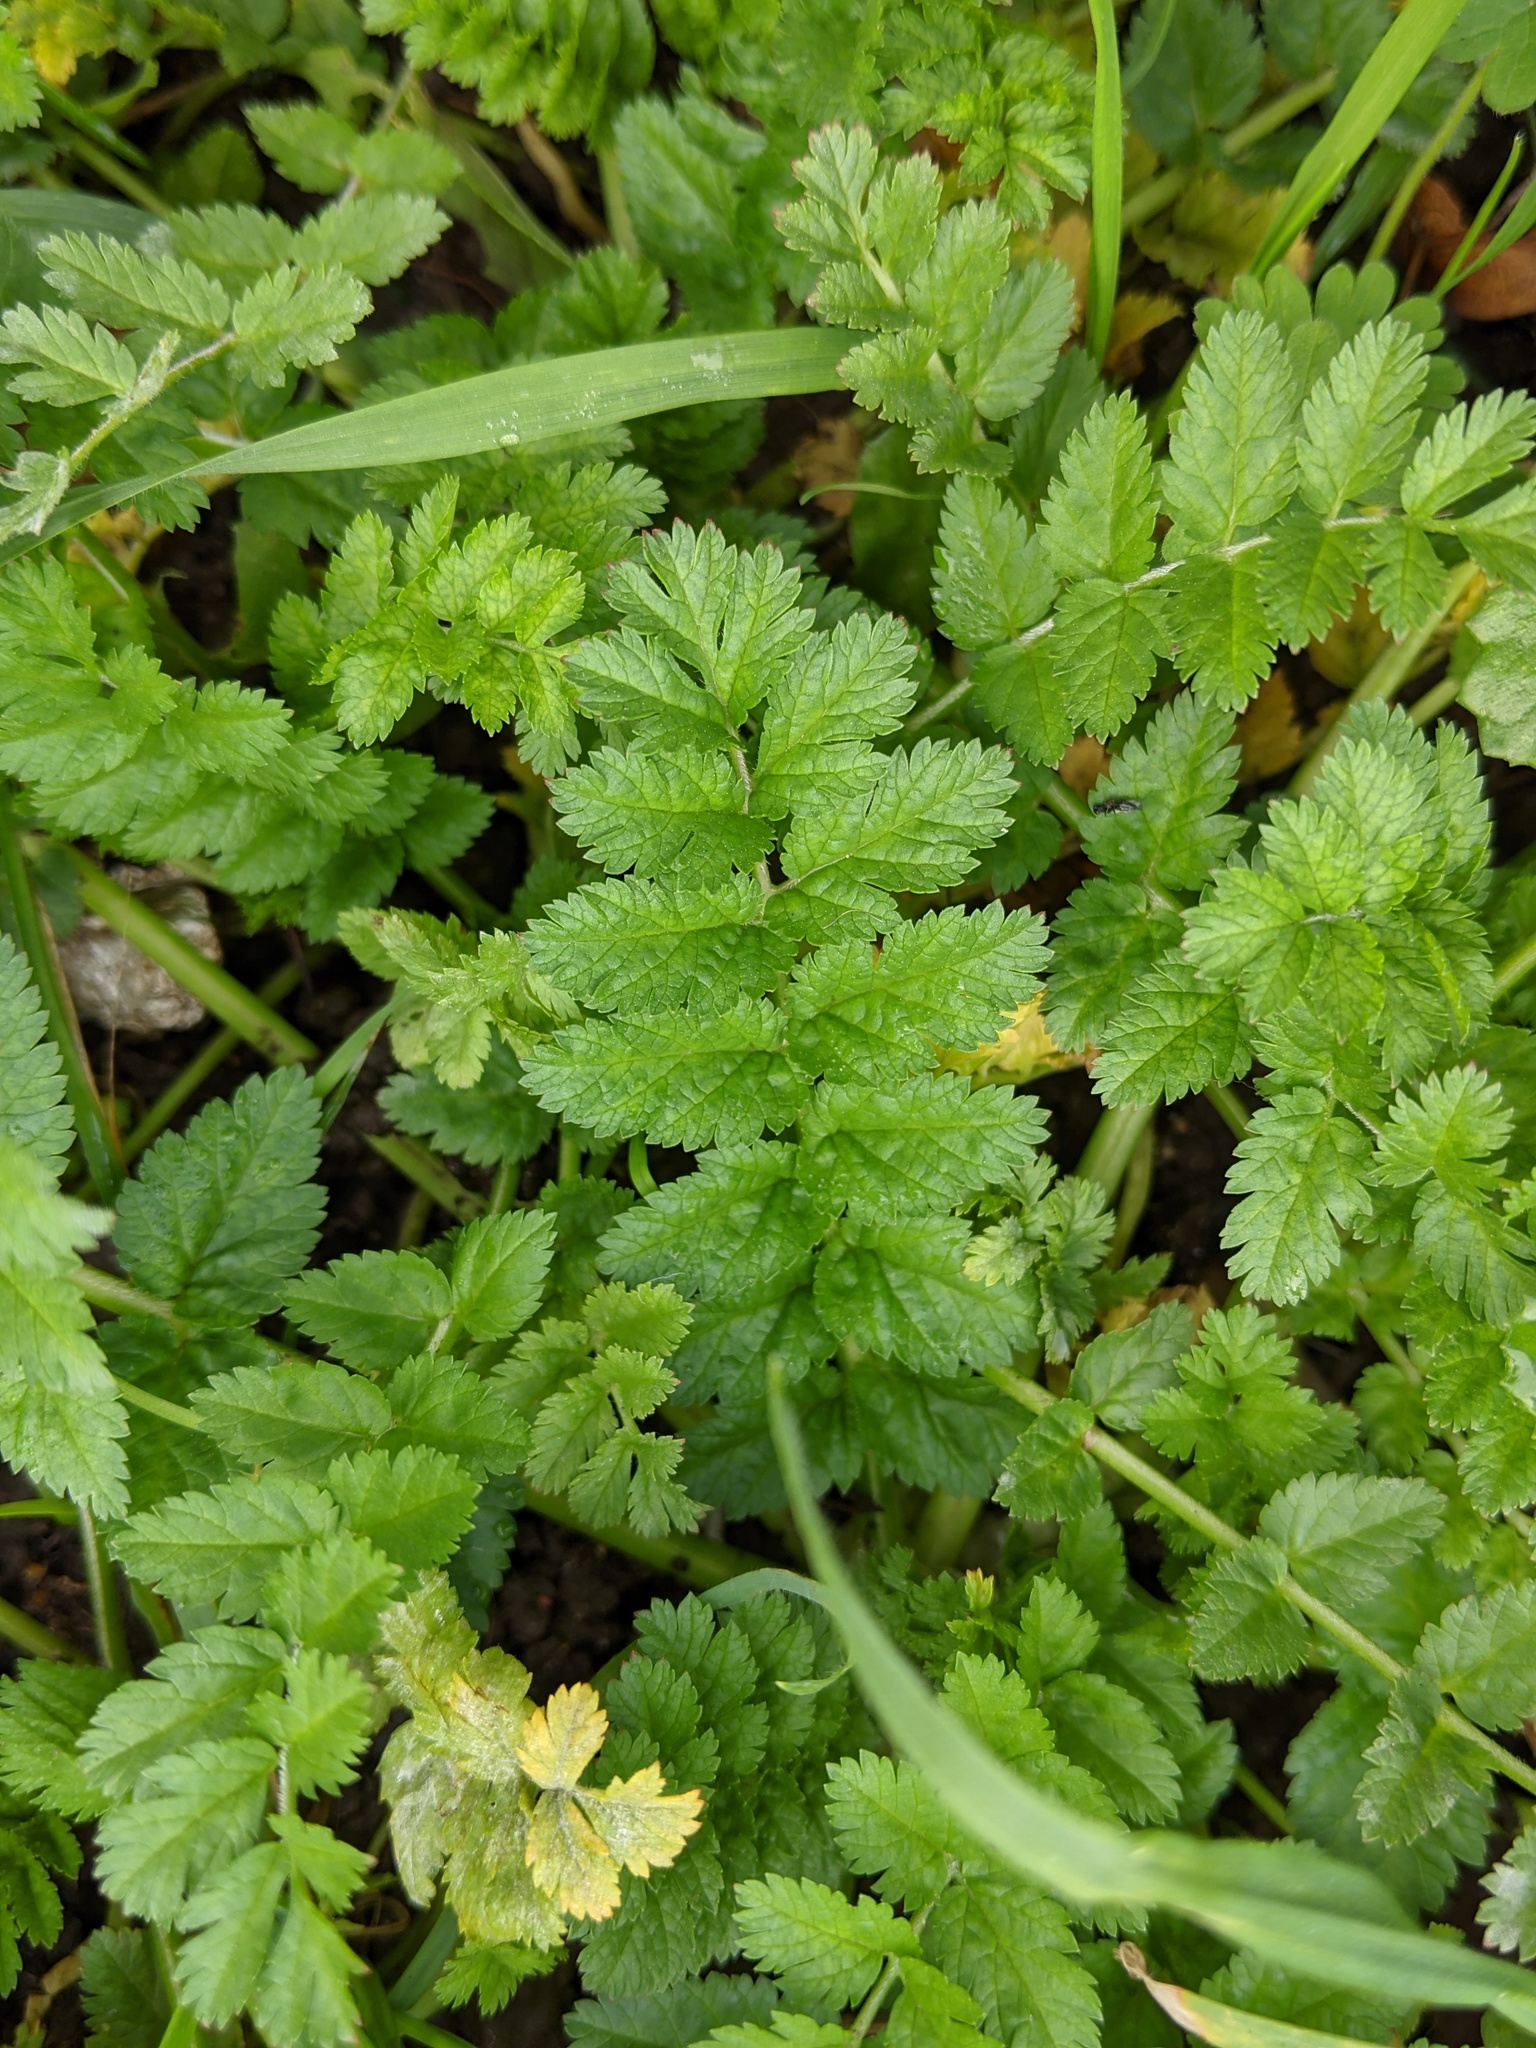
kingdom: Plantae
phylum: Tracheophyta
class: Magnoliopsida
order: Geraniales
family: Geraniaceae
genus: Erodium
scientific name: Erodium moschatum
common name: Musk stork's-bill
